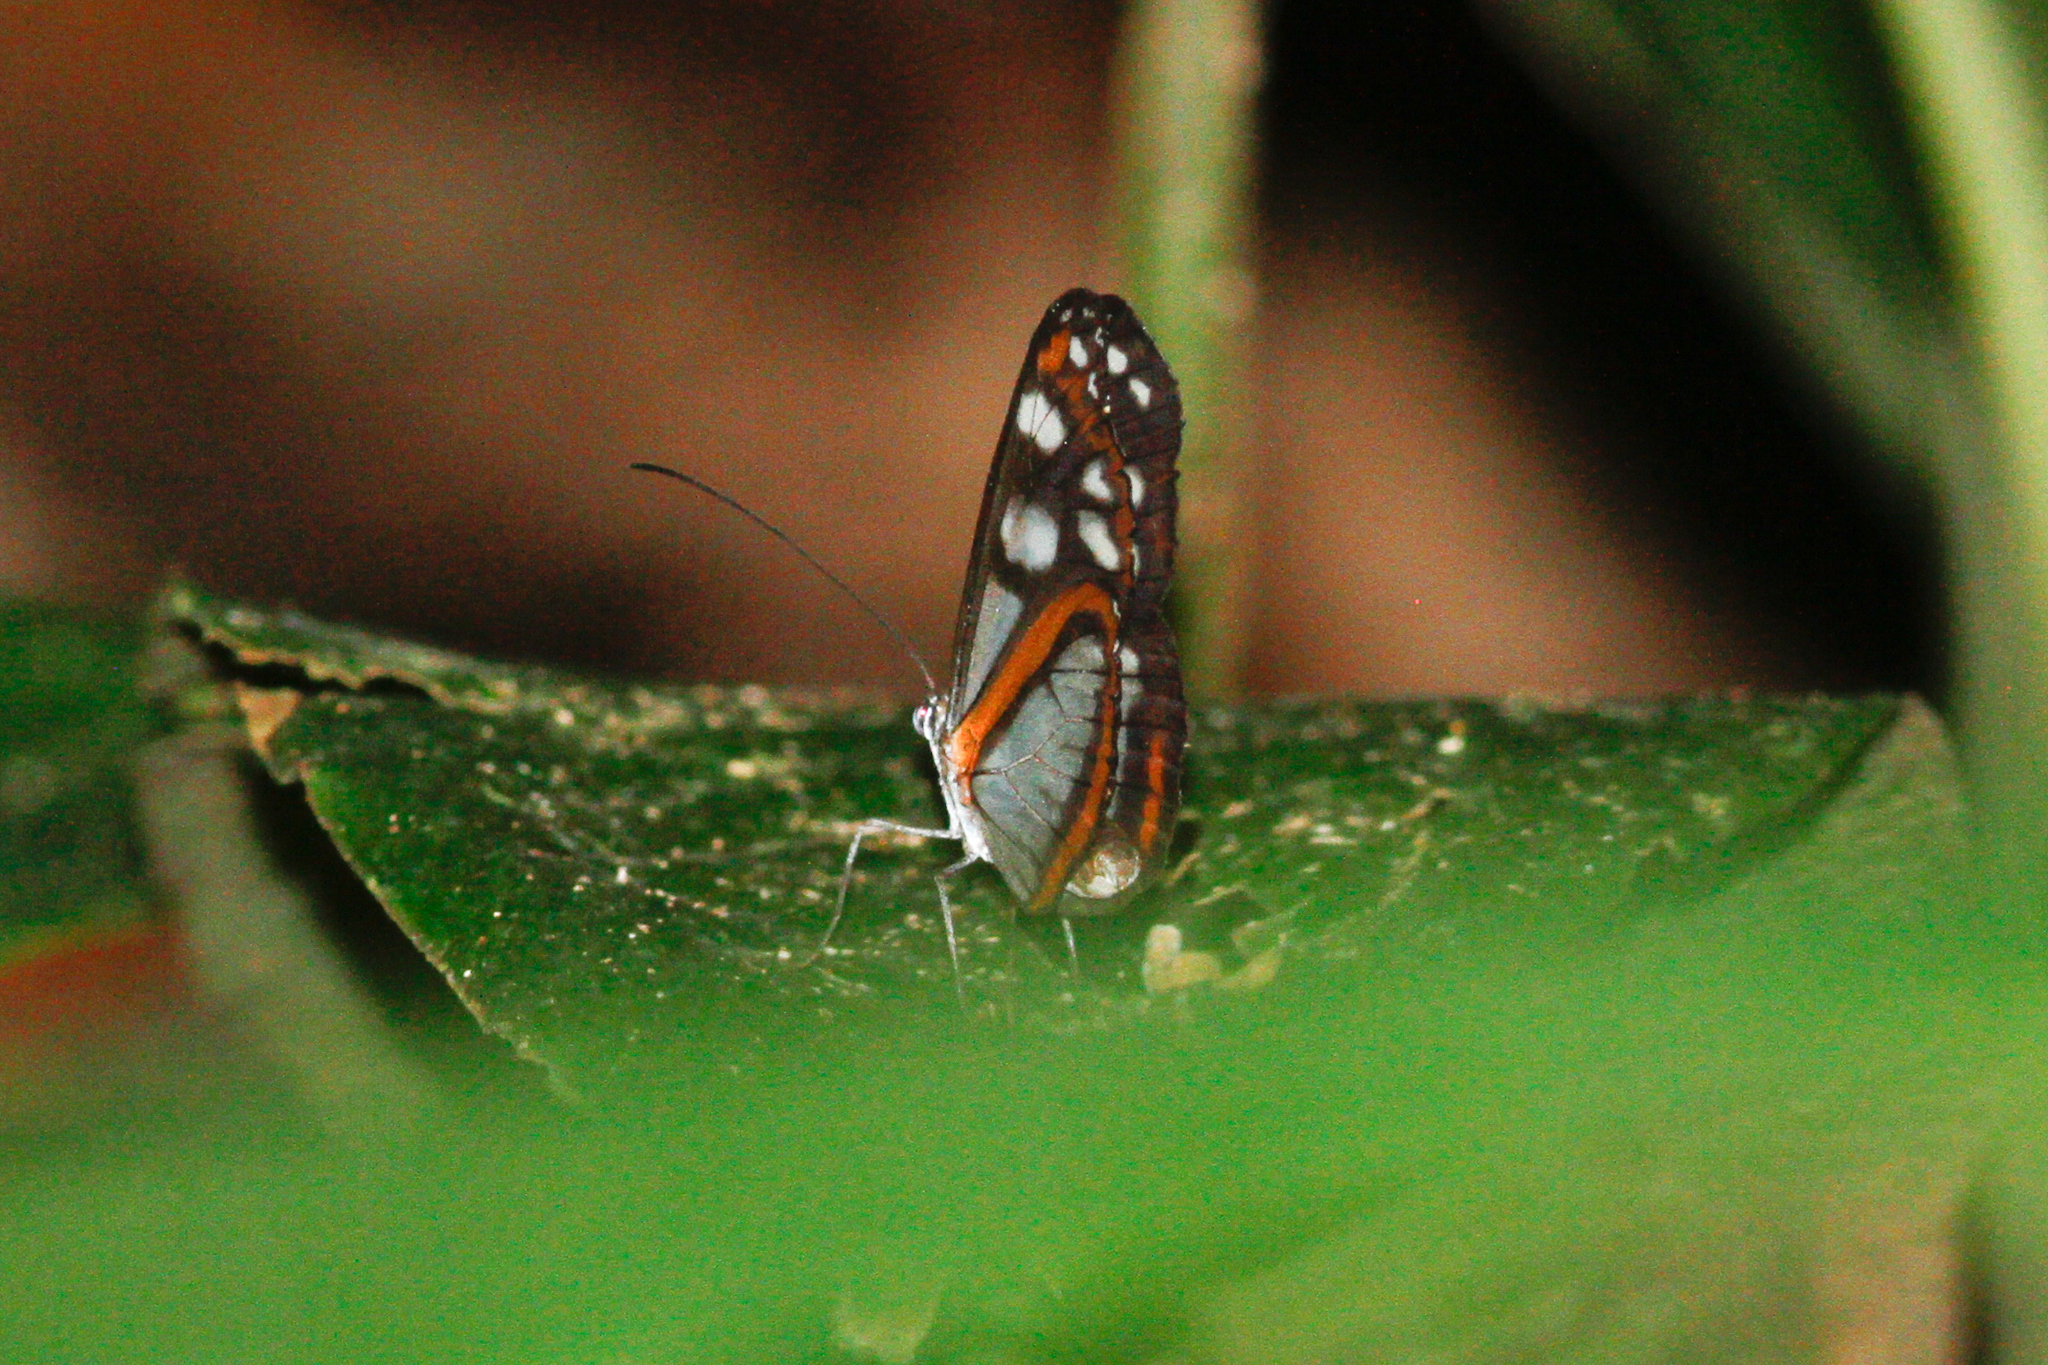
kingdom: Animalia
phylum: Arthropoda
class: Insecta
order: Lepidoptera
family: Nymphalidae
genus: Hyposcada
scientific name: Hyposcada illinissa
